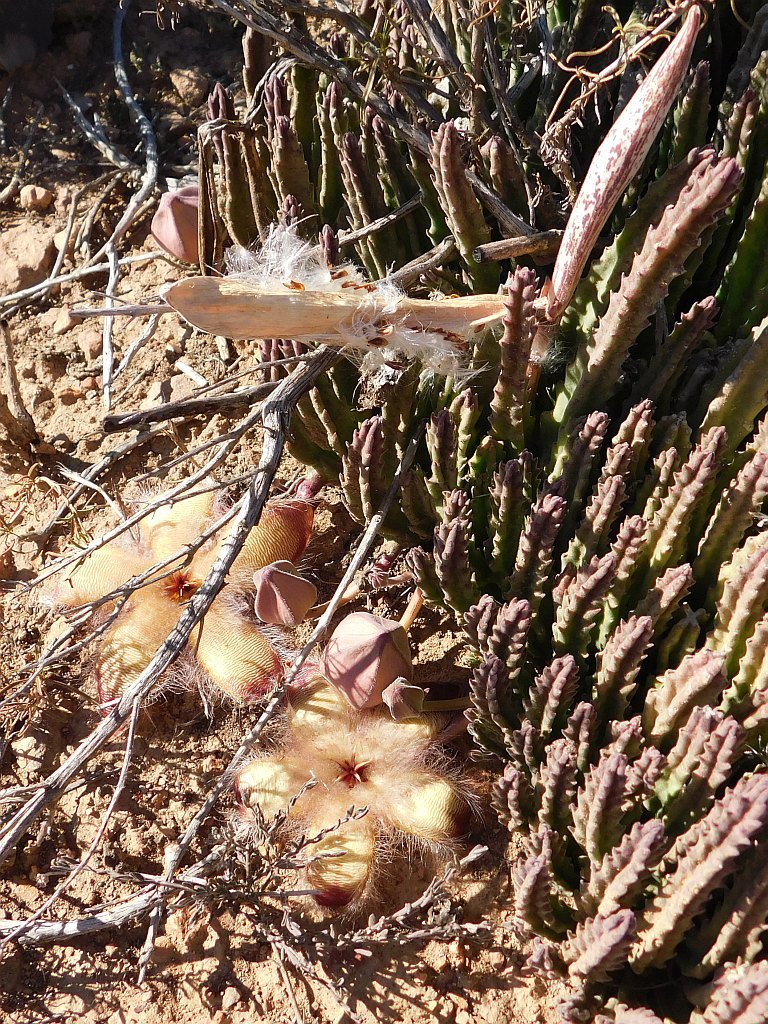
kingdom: Plantae
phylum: Tracheophyta
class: Magnoliopsida
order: Gentianales
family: Apocynaceae
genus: Ceropegia
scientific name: Ceropegia pulvinata
